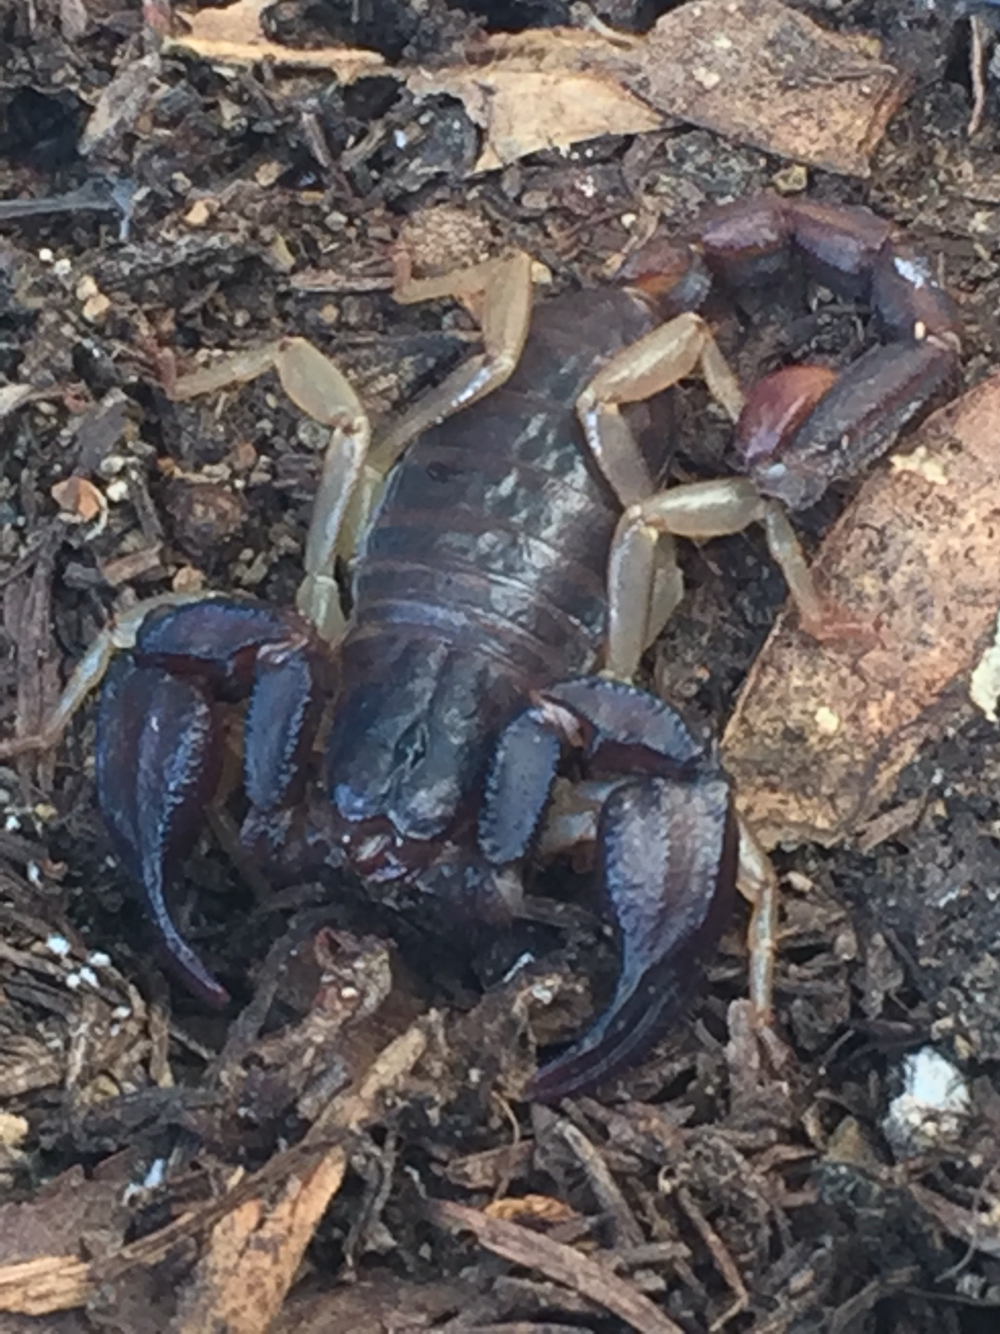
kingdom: Animalia
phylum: Arthropoda
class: Arachnida
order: Scorpiones
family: Chactidae
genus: Uroctonus
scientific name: Uroctonus mordax
